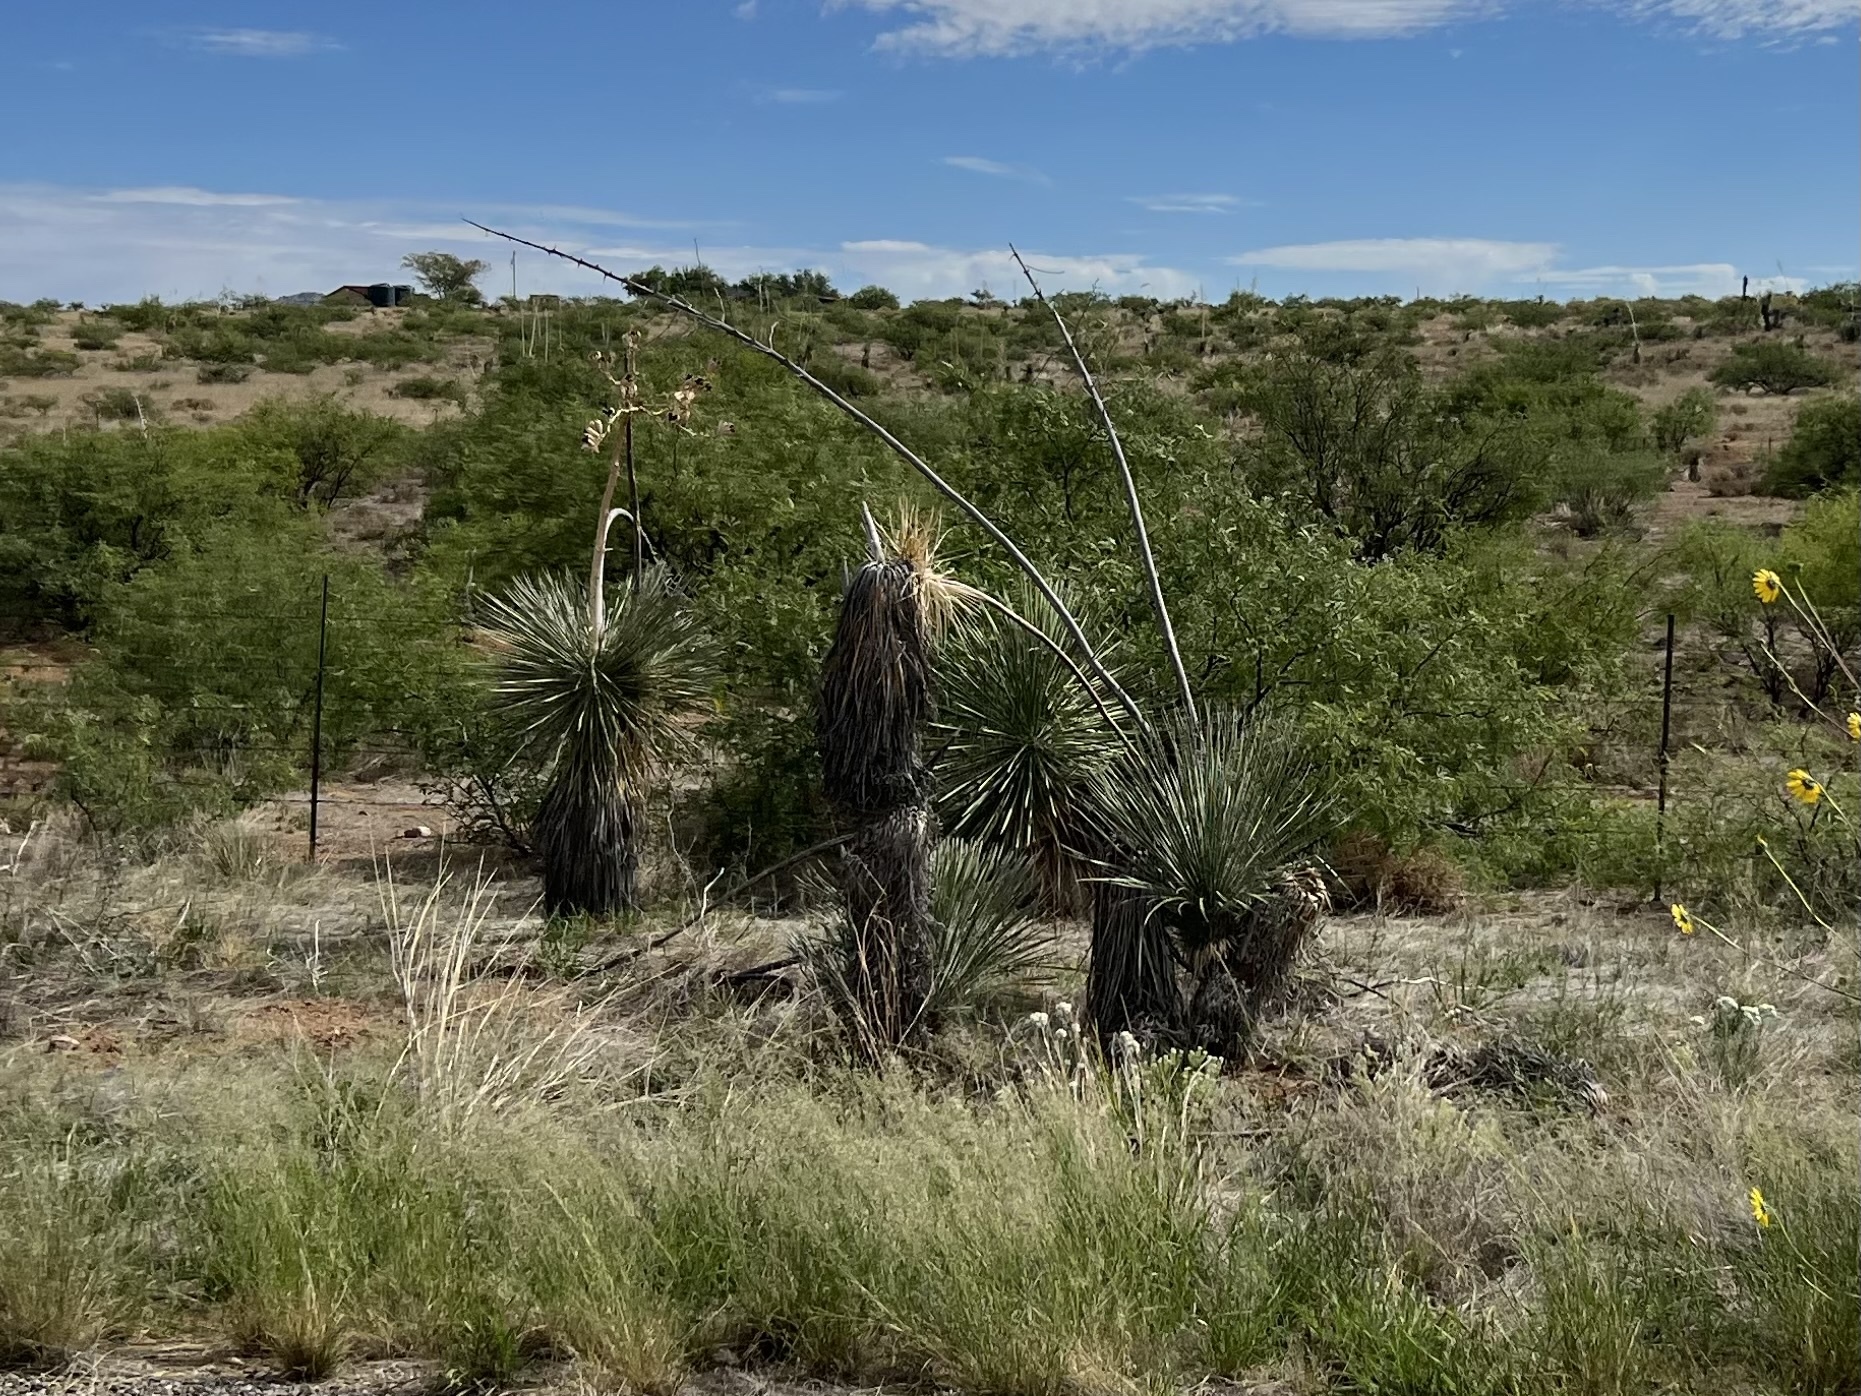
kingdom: Plantae
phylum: Tracheophyta
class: Liliopsida
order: Asparagales
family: Asparagaceae
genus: Yucca
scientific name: Yucca elata
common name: Palmella
